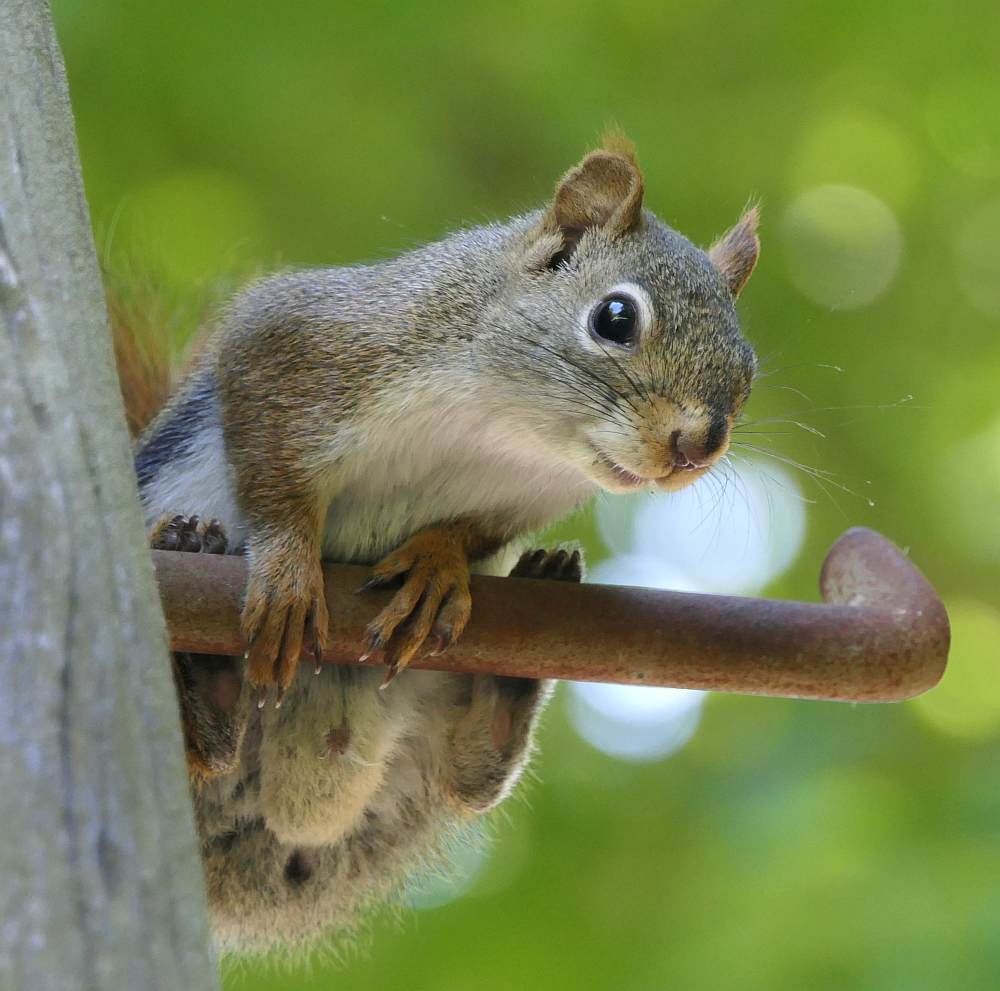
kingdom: Animalia
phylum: Chordata
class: Mammalia
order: Rodentia
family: Sciuridae
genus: Tamiasciurus
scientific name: Tamiasciurus hudsonicus
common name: Red squirrel
